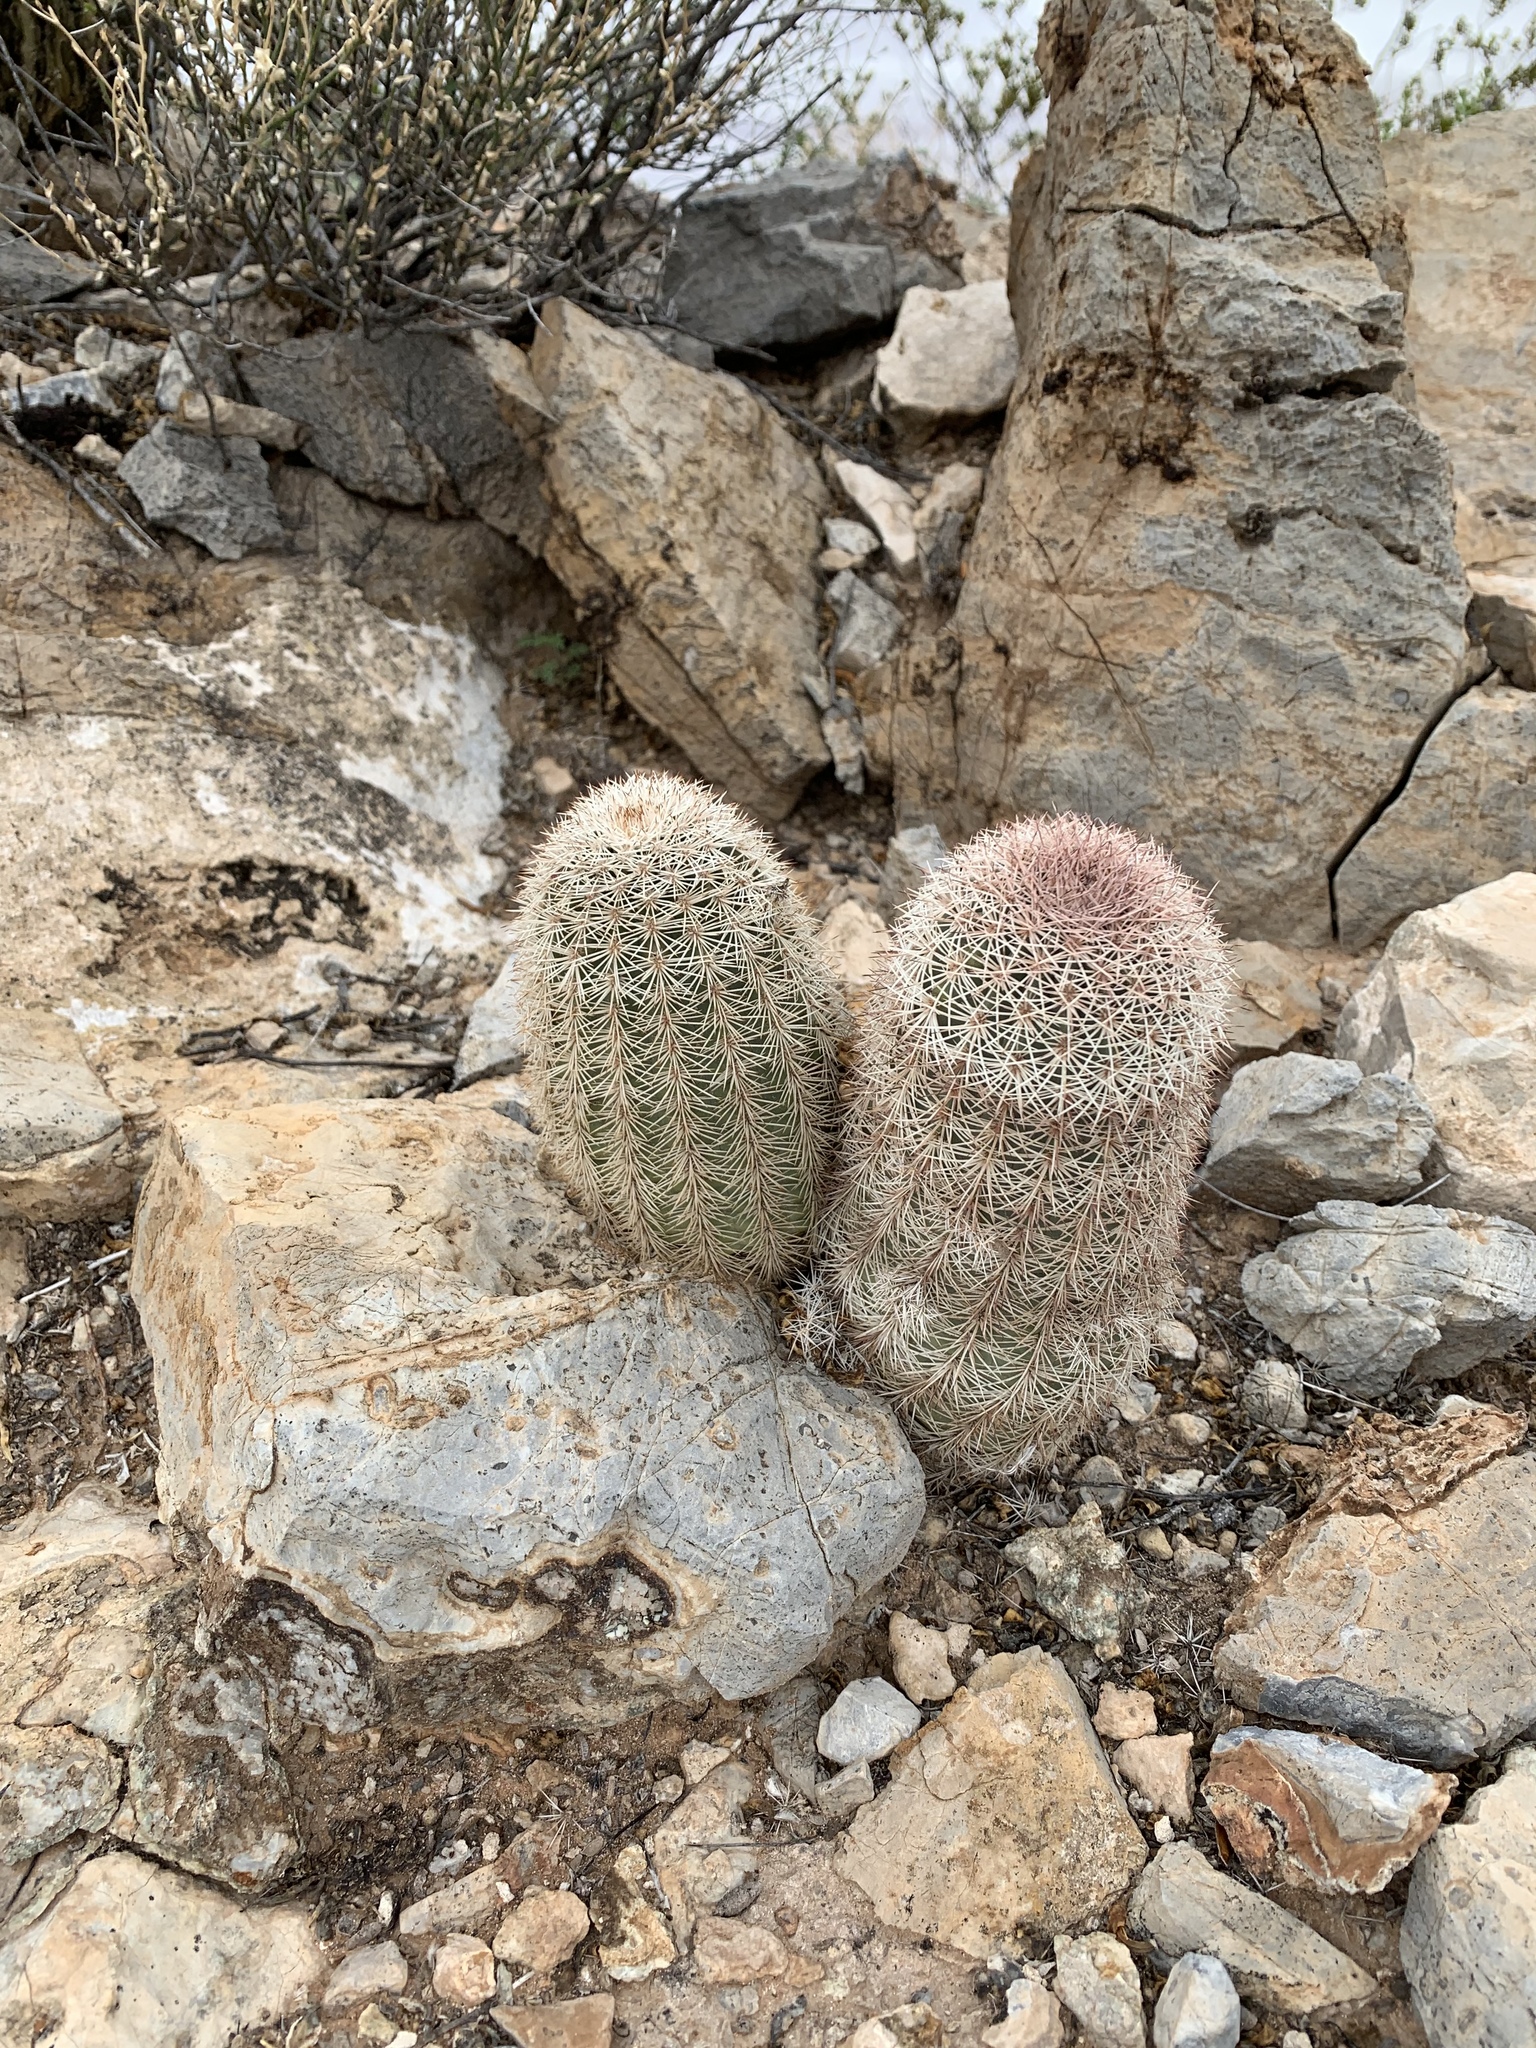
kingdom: Plantae
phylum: Tracheophyta
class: Magnoliopsida
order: Caryophyllales
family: Cactaceae
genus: Echinocereus
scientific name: Echinocereus dasyacanthus
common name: Spiny hedgehog cactus
